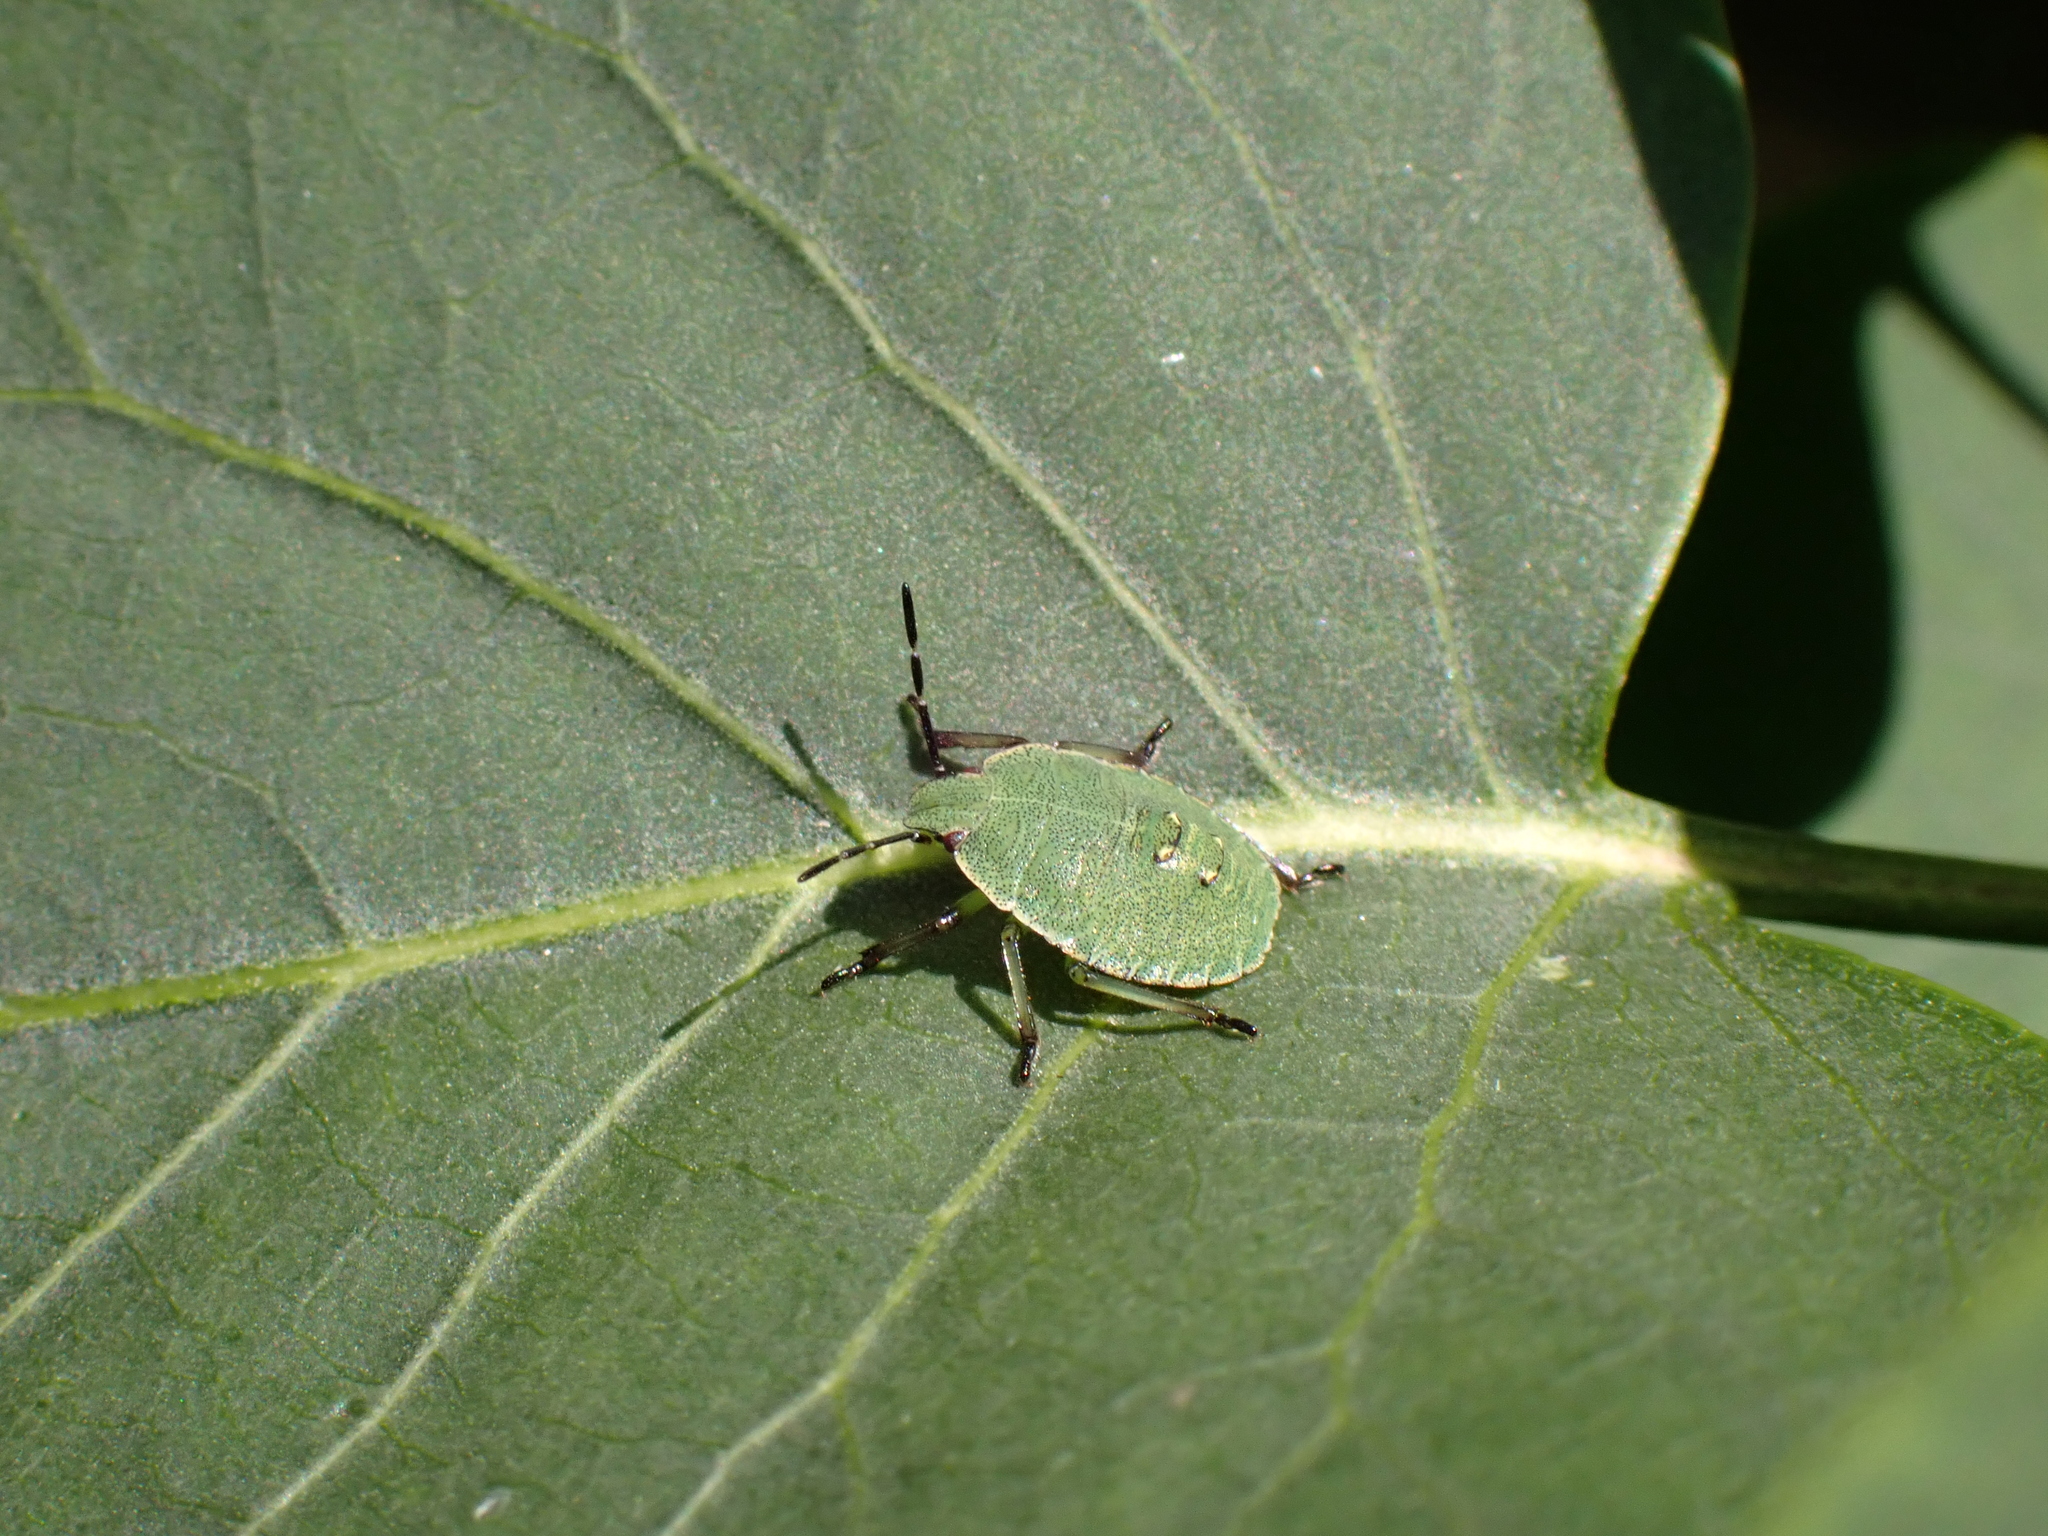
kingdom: Animalia
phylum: Arthropoda
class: Insecta
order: Hemiptera
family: Pentatomidae
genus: Palomena
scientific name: Palomena prasina
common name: Green shieldbug
